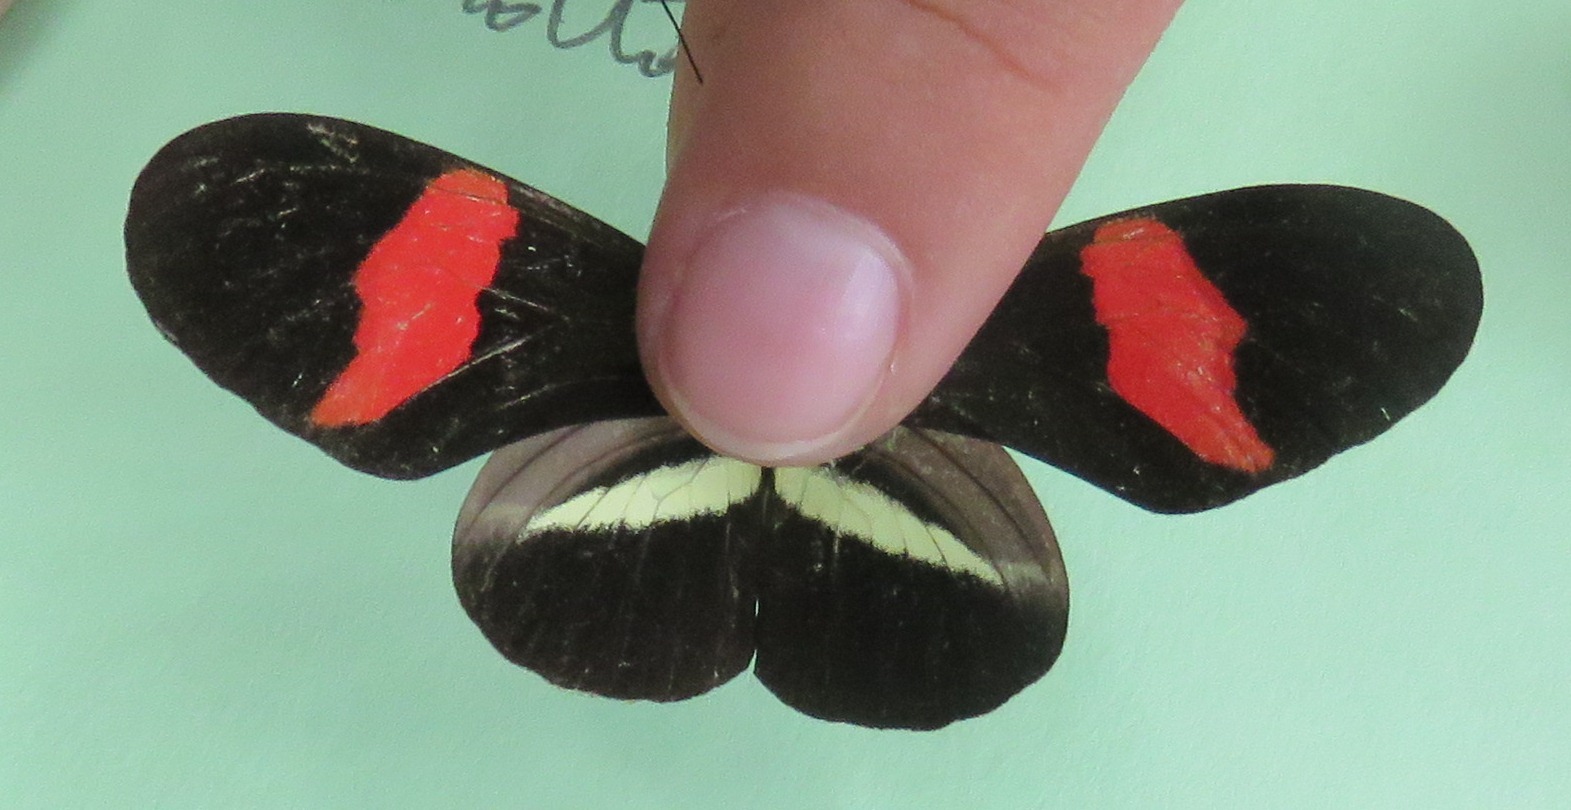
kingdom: Animalia
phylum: Arthropoda
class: Insecta
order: Lepidoptera
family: Nymphalidae
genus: Heliconius
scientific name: Heliconius erato
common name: Common patch longwing
